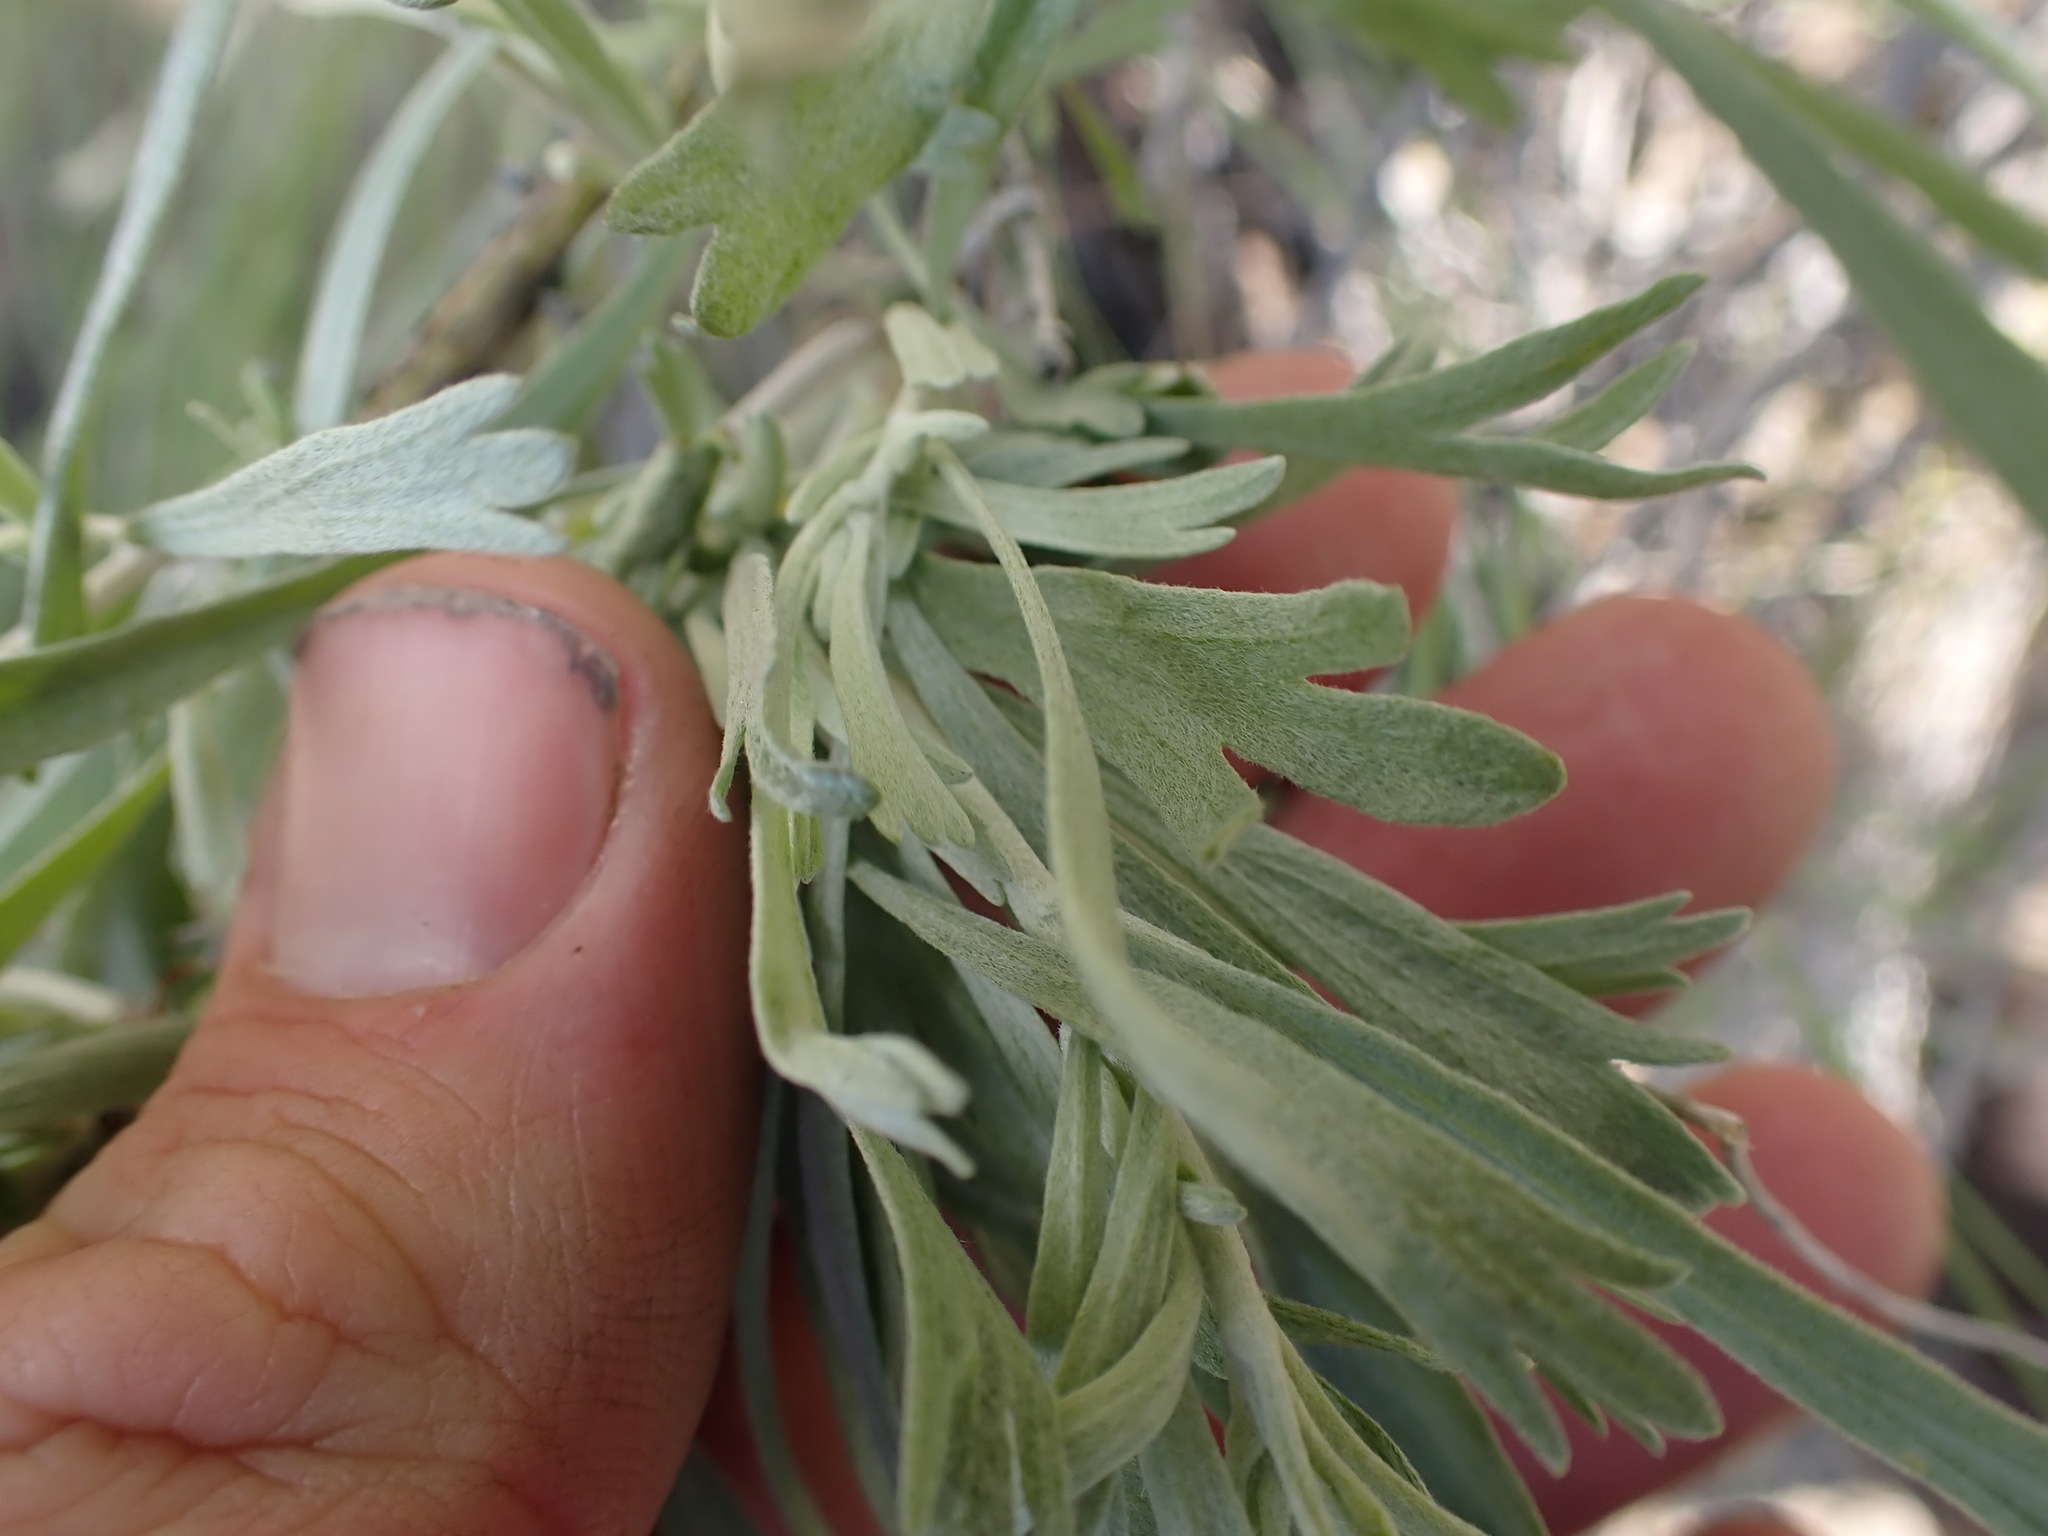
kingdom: Plantae
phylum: Tracheophyta
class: Magnoliopsida
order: Asterales
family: Asteraceae
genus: Artemisia
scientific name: Artemisia tridentata
